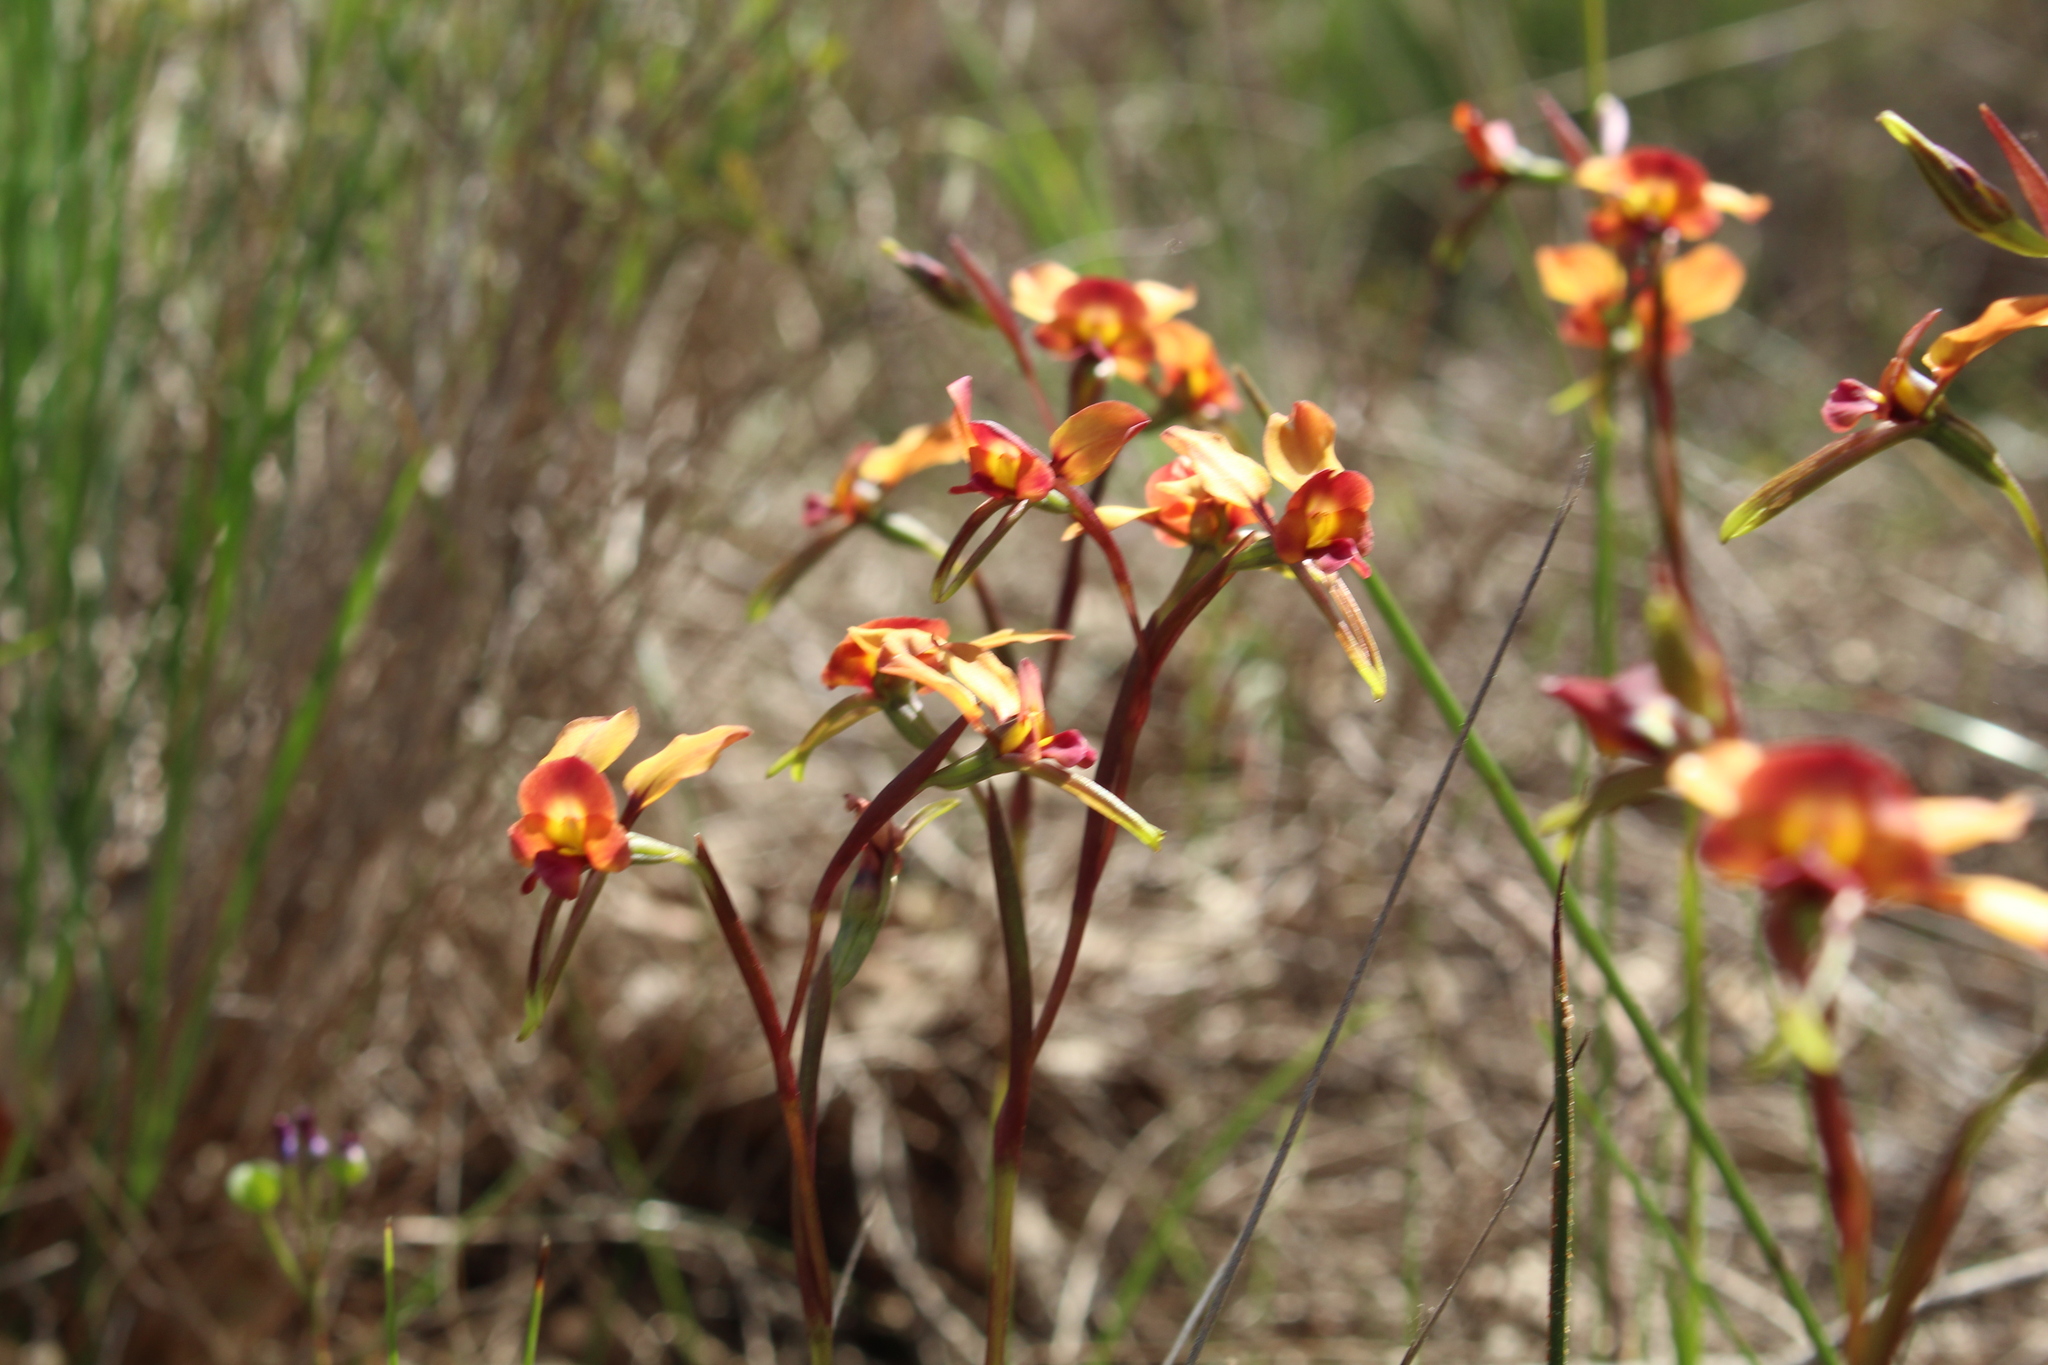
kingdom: Plantae
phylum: Tracheophyta
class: Liliopsida
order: Asparagales
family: Orchidaceae
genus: Diuris
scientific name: Diuris longifolia
